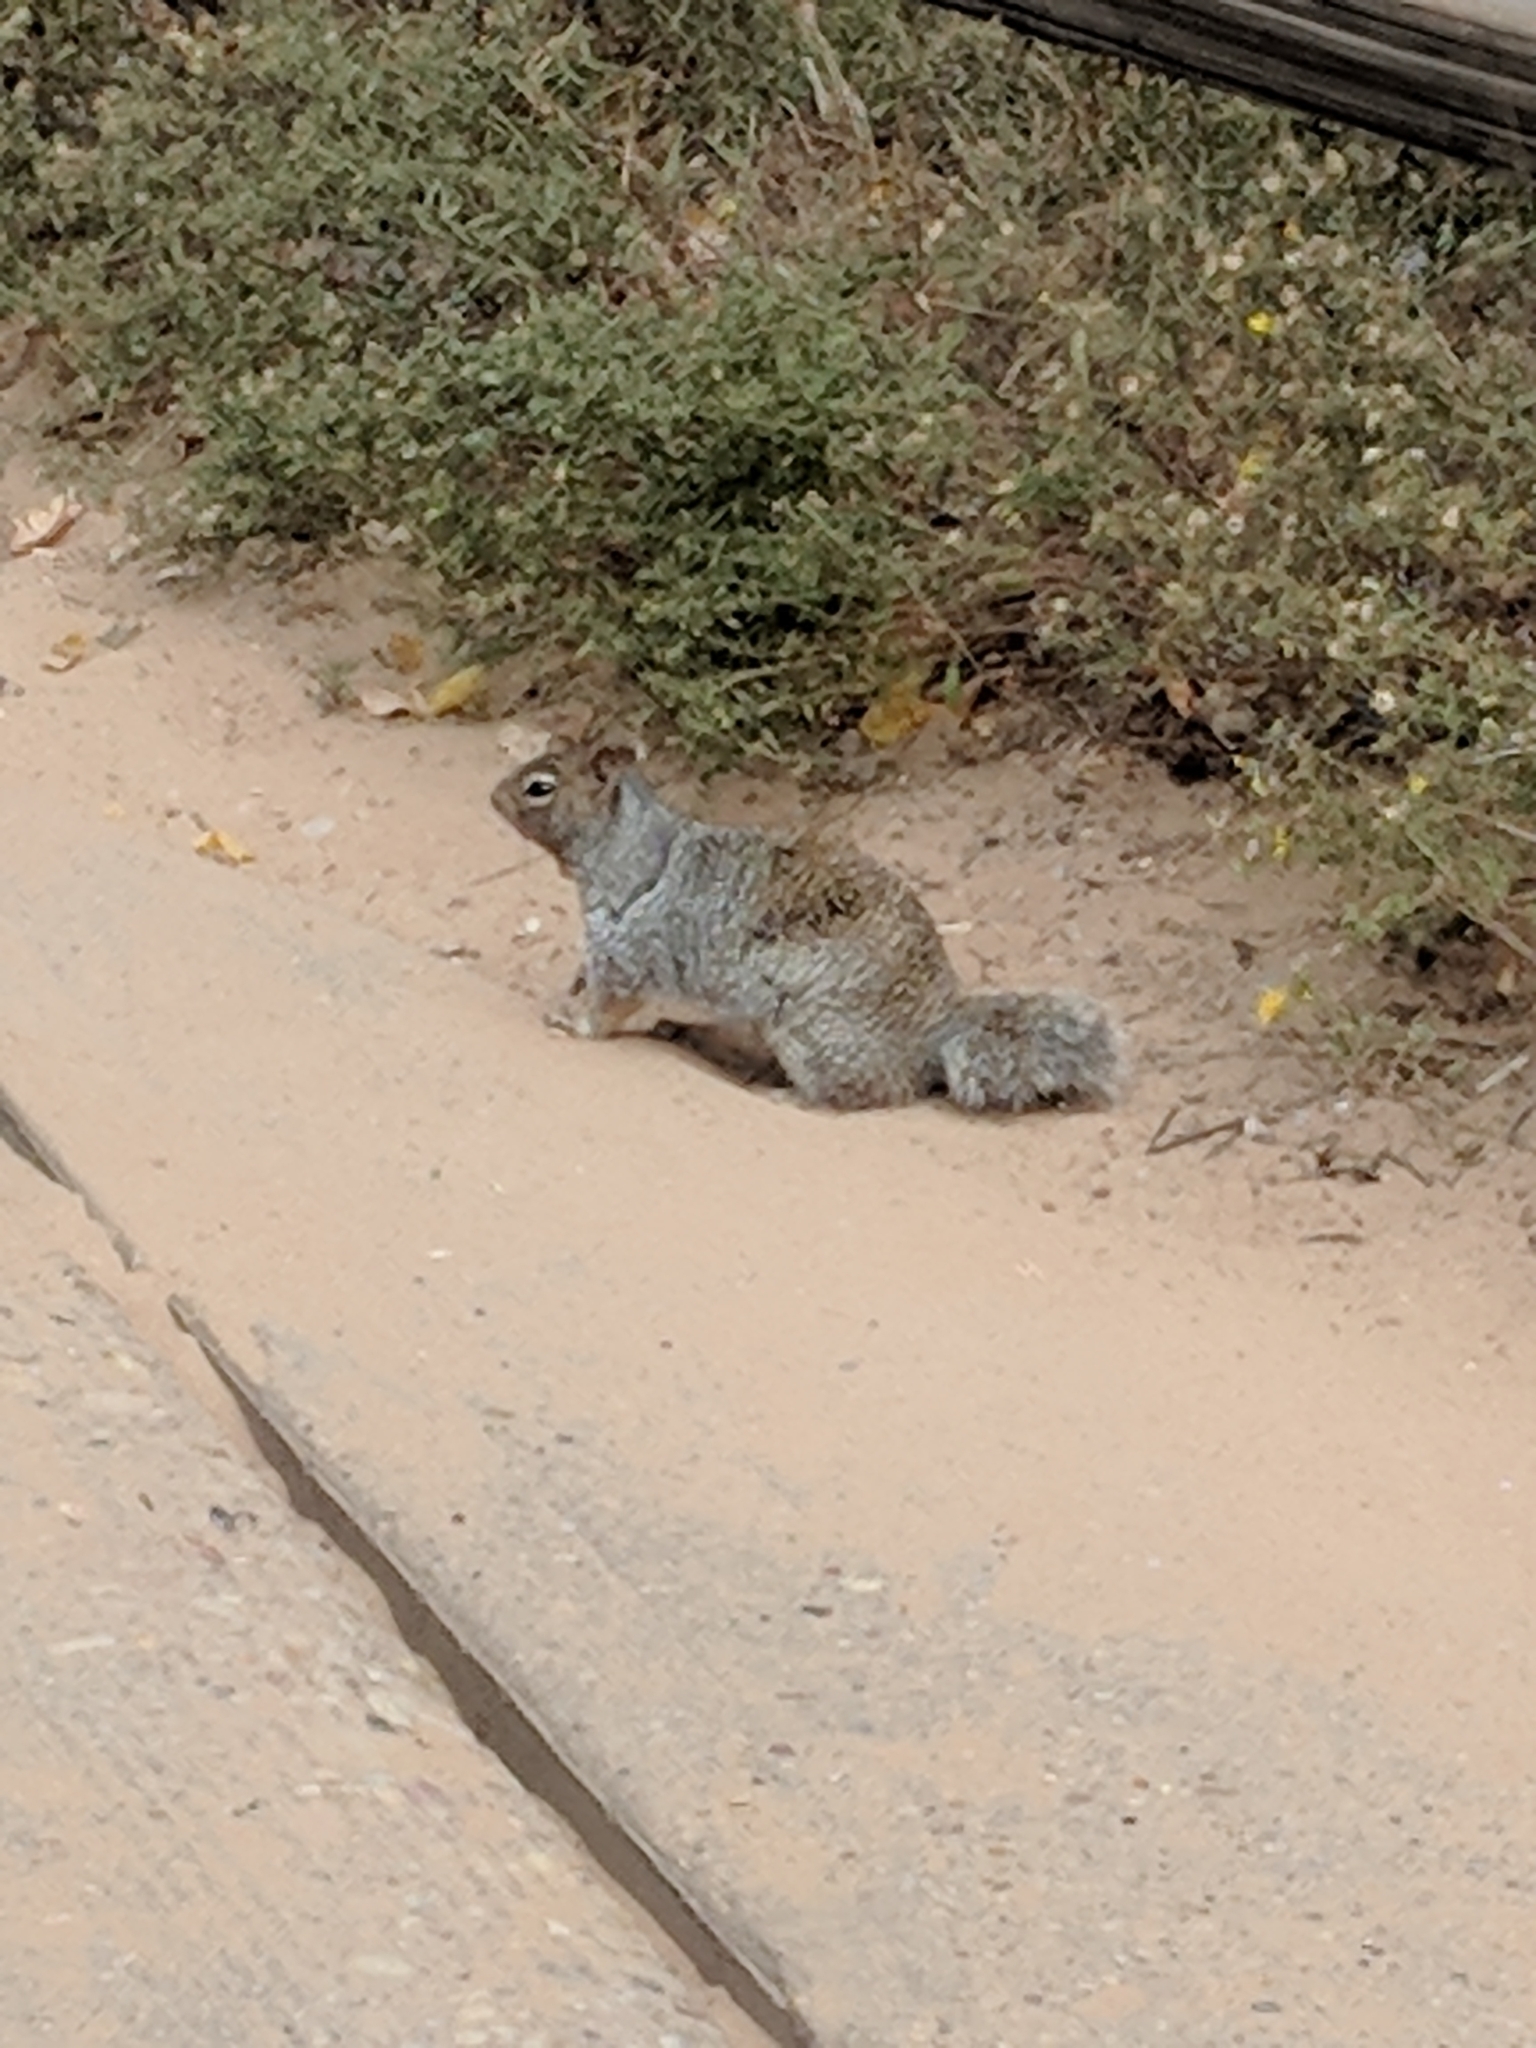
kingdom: Animalia
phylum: Chordata
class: Mammalia
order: Rodentia
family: Sciuridae
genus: Otospermophilus
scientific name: Otospermophilus variegatus
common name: Rock squirrel
